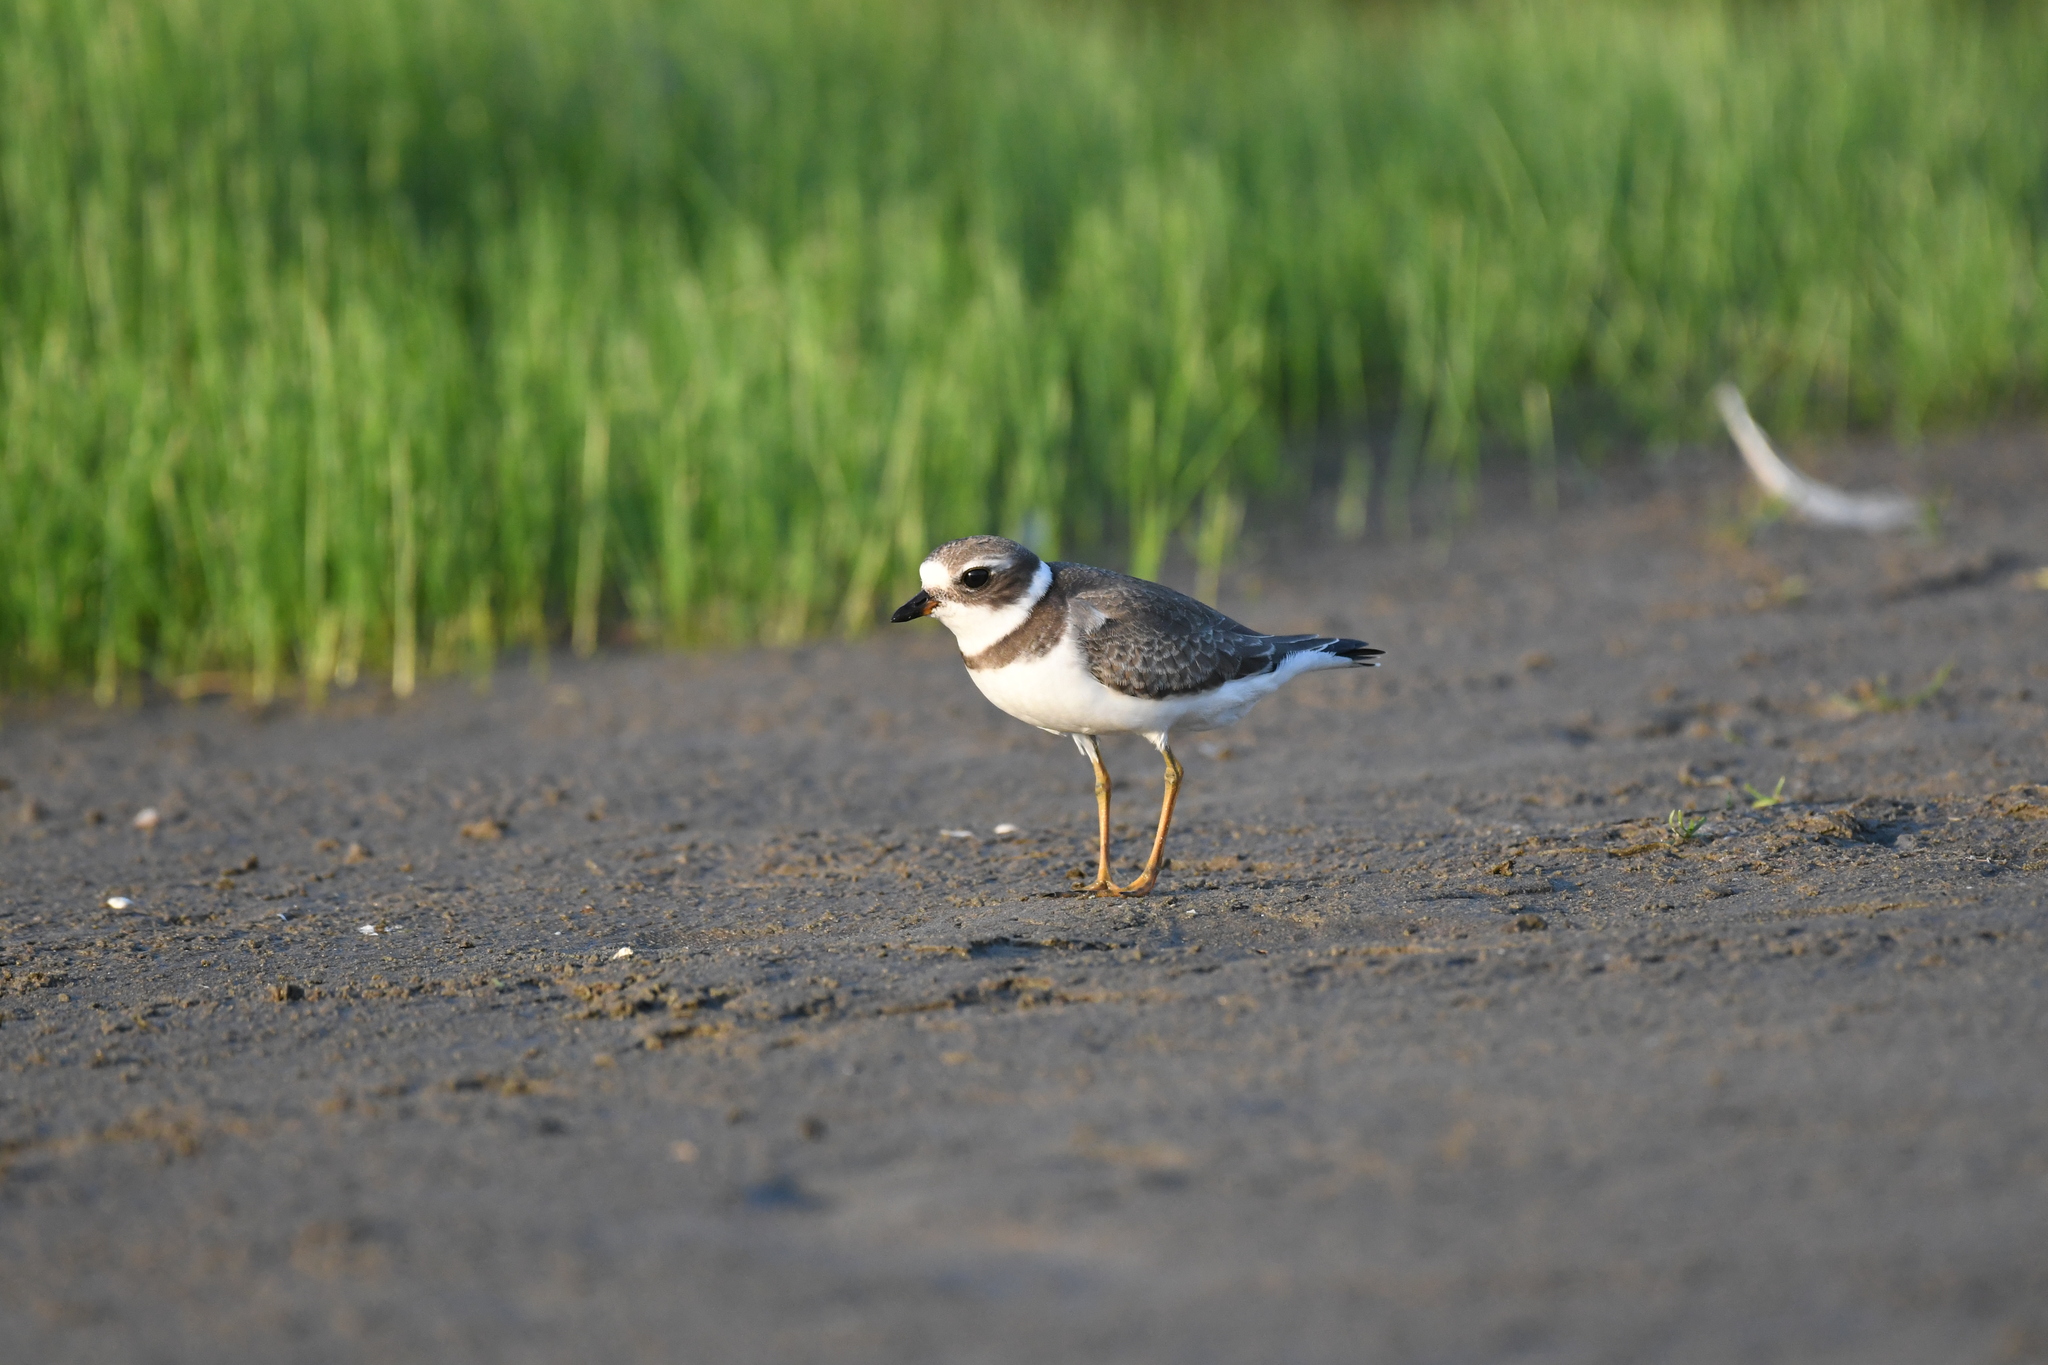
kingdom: Animalia
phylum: Chordata
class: Aves
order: Charadriiformes
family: Charadriidae
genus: Charadrius
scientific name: Charadrius semipalmatus
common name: Semipalmated plover
